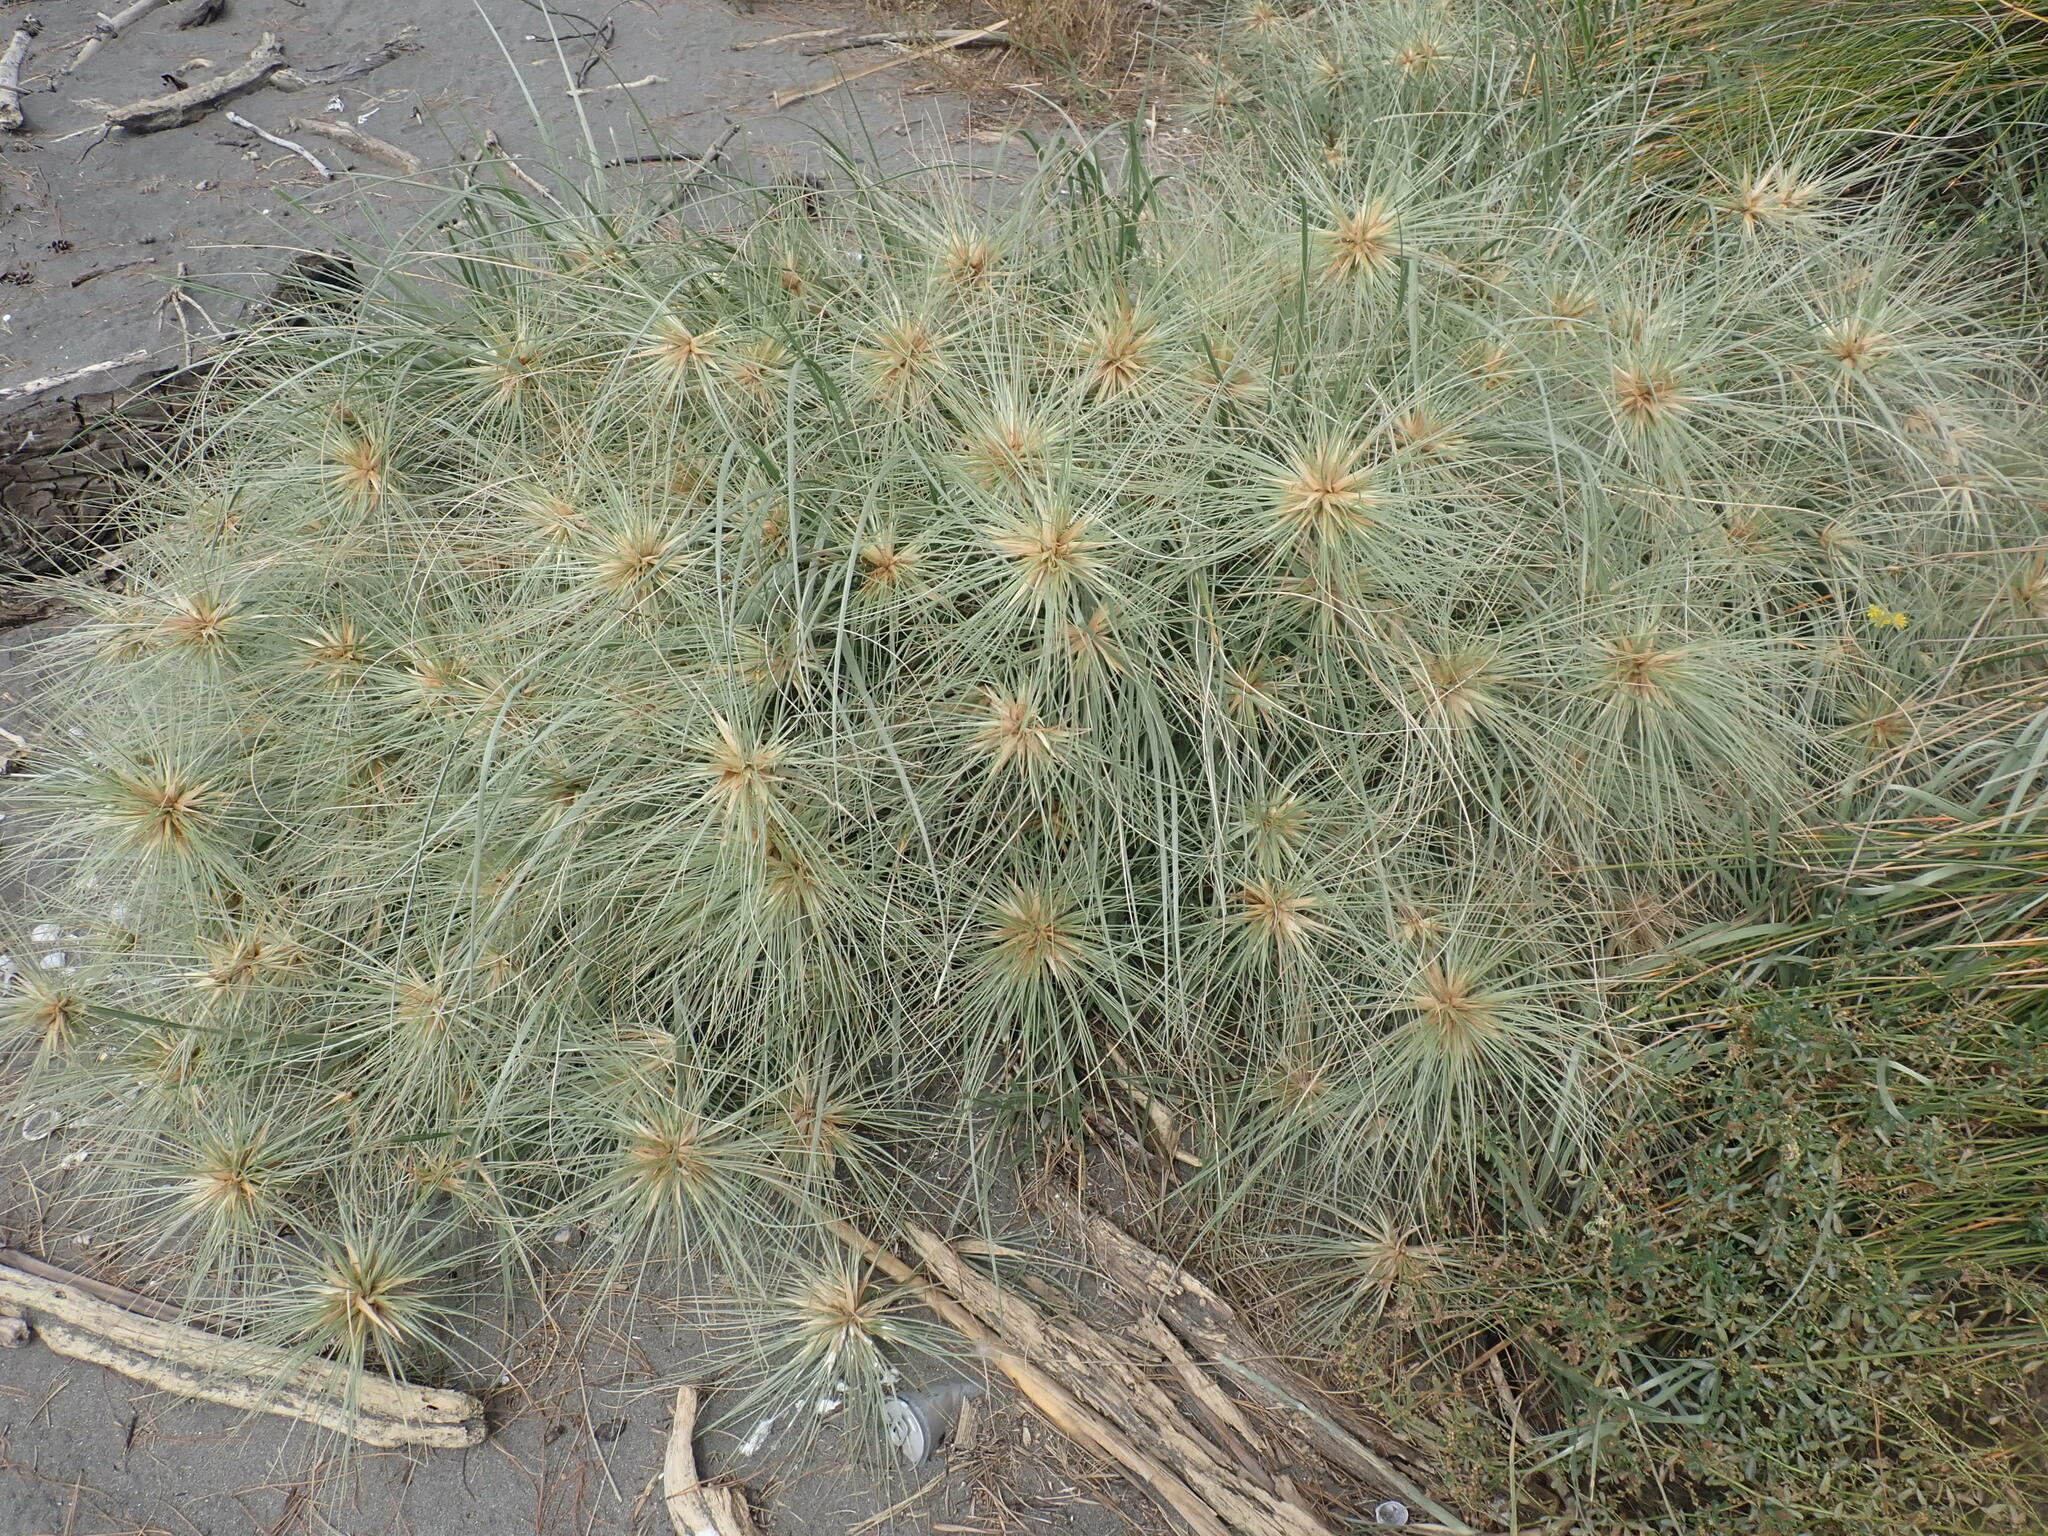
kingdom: Plantae
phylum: Tracheophyta
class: Liliopsida
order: Poales
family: Poaceae
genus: Spinifex
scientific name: Spinifex sericeus
